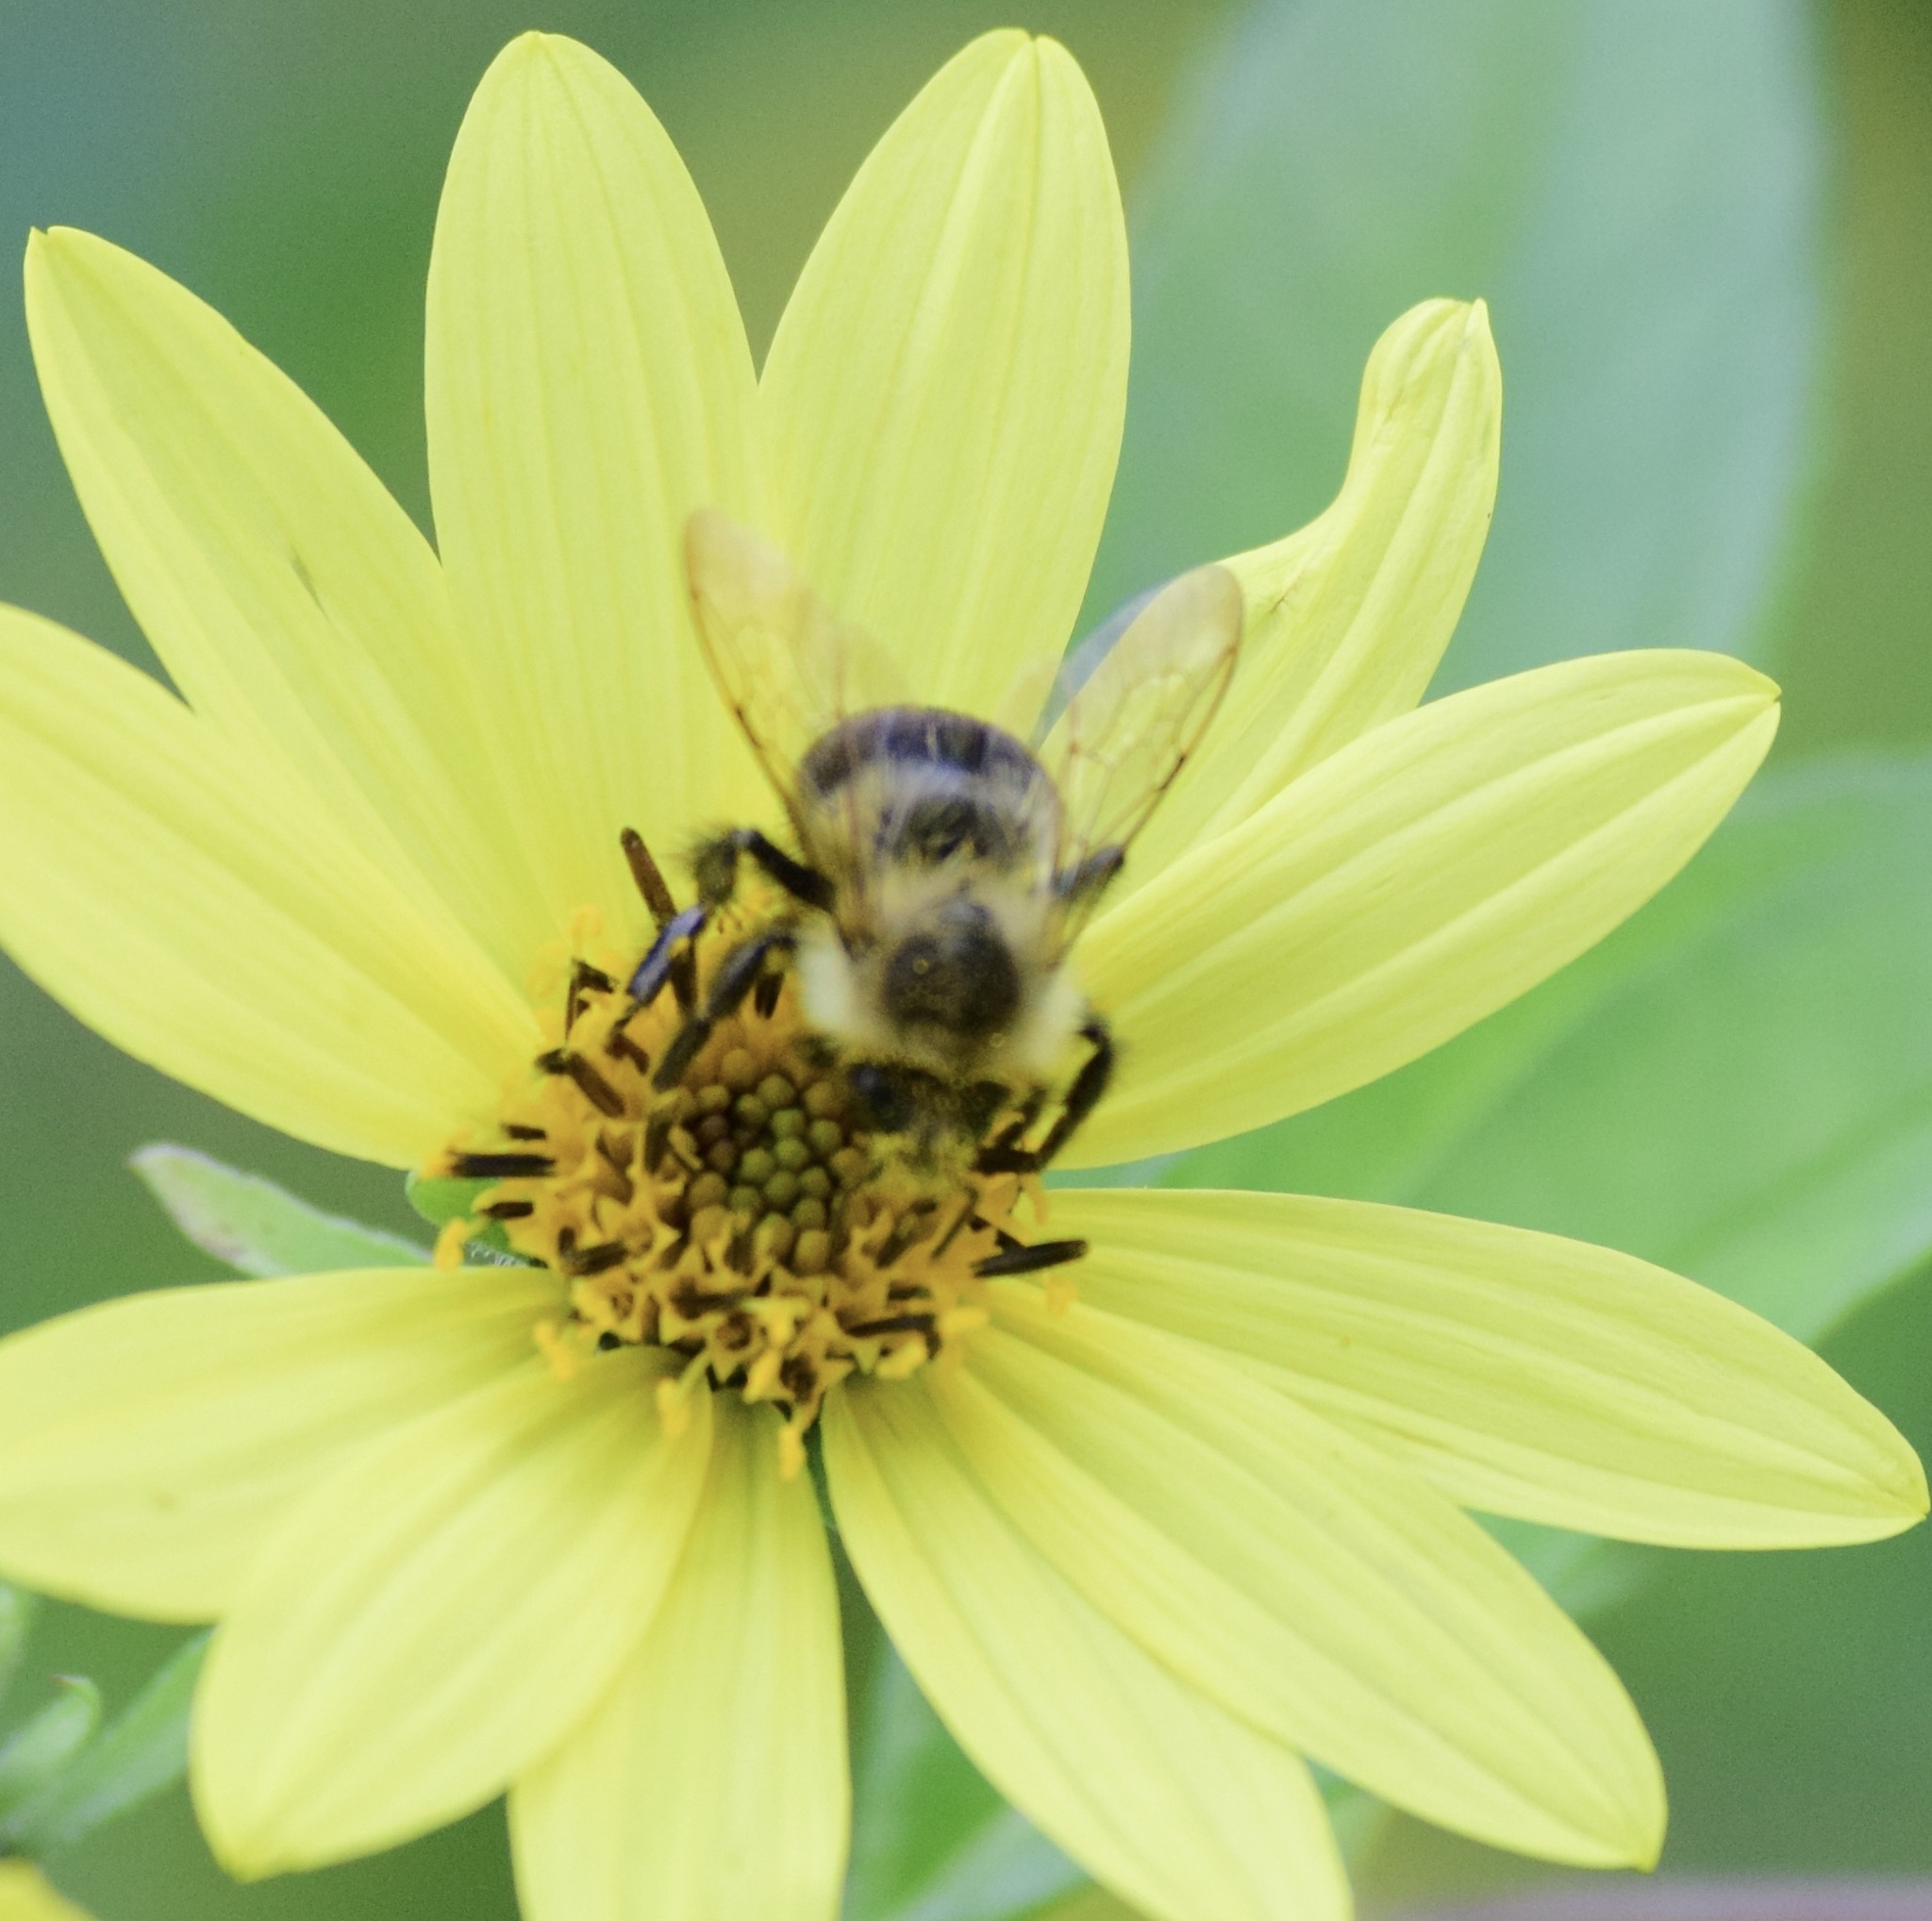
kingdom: Animalia
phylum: Arthropoda
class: Insecta
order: Hymenoptera
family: Apidae
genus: Bombus
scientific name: Bombus impatiens
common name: Common eastern bumble bee
